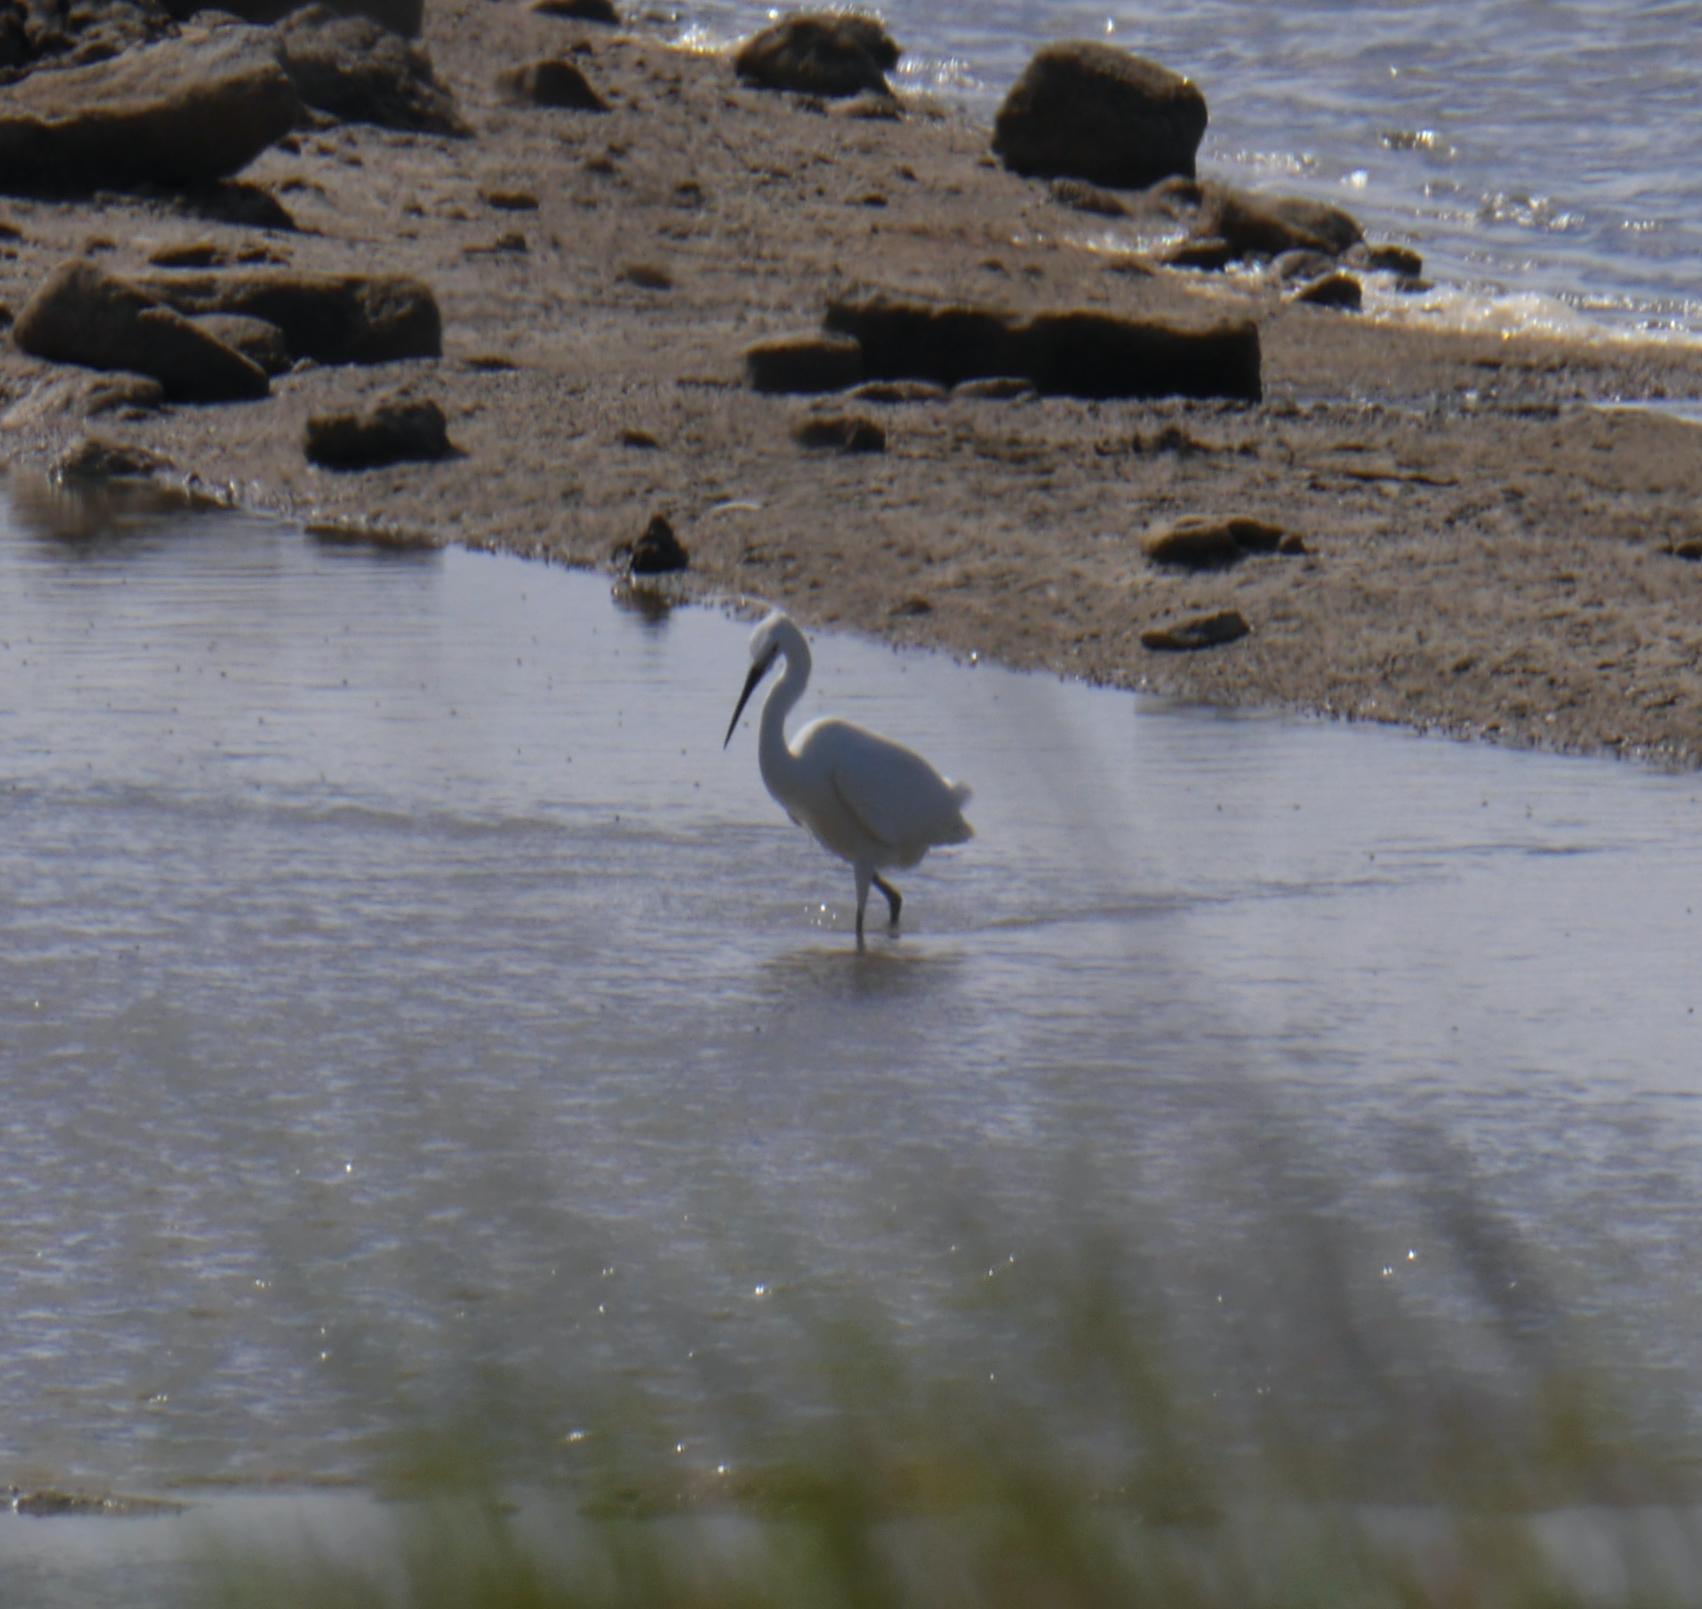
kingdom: Animalia
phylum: Chordata
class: Aves
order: Pelecaniformes
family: Ardeidae
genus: Egretta
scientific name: Egretta garzetta
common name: Little egret
